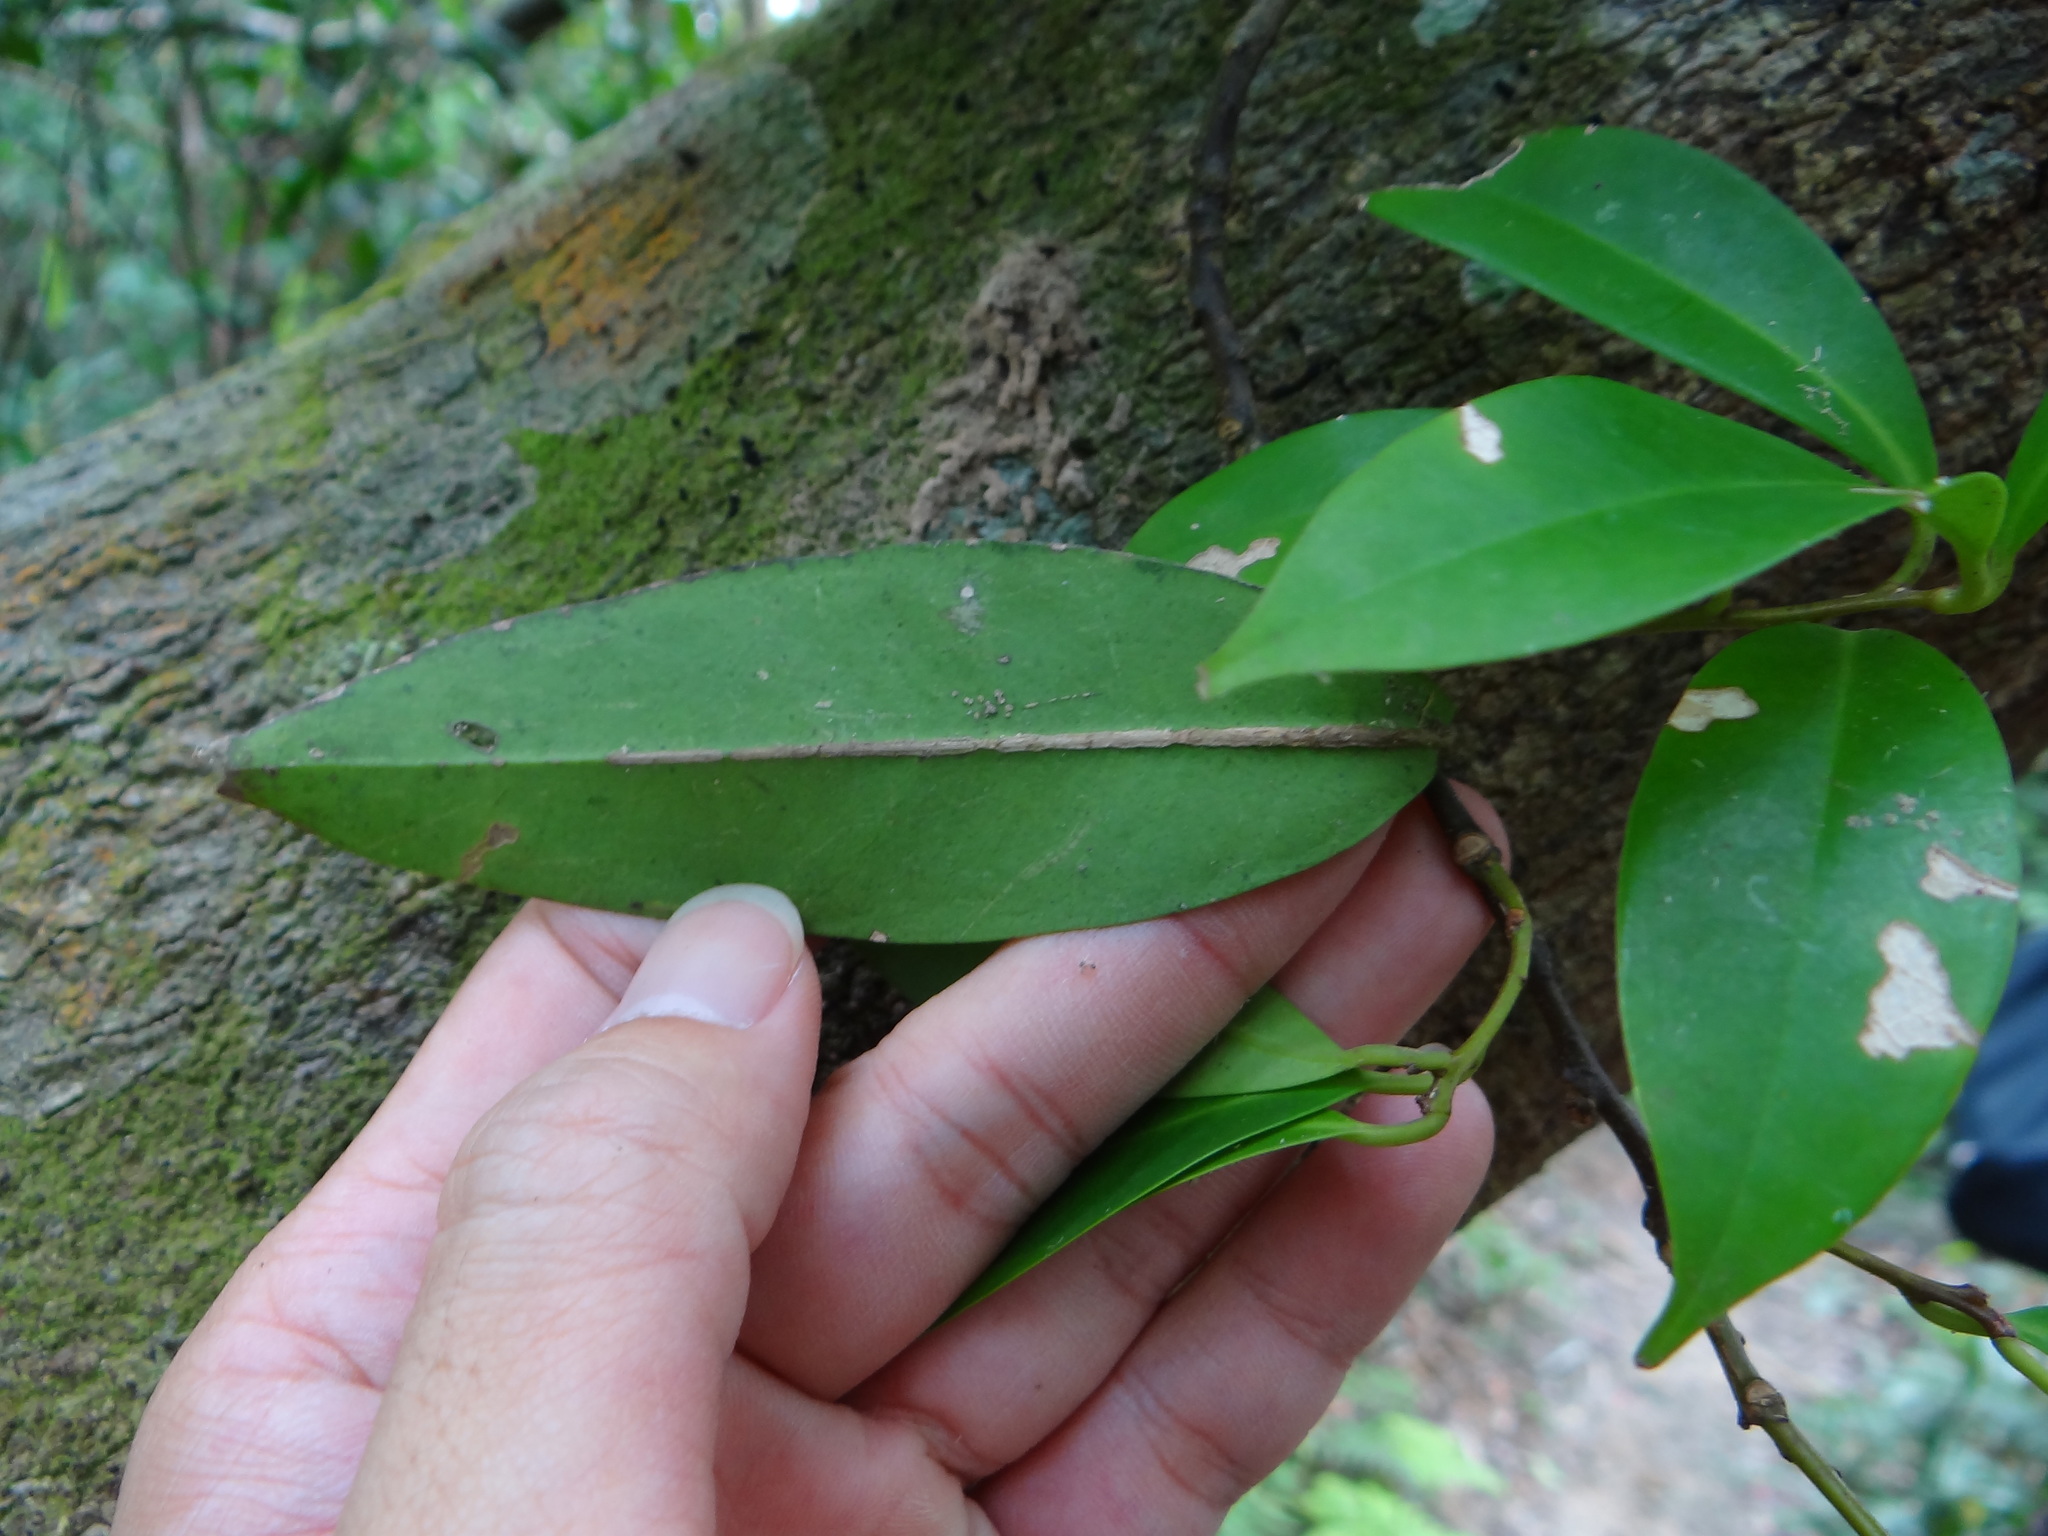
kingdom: Plantae
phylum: Tracheophyta
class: Magnoliopsida
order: Aquifoliales
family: Aquifoliaceae
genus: Ilex
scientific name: Ilex cochinchinensis
